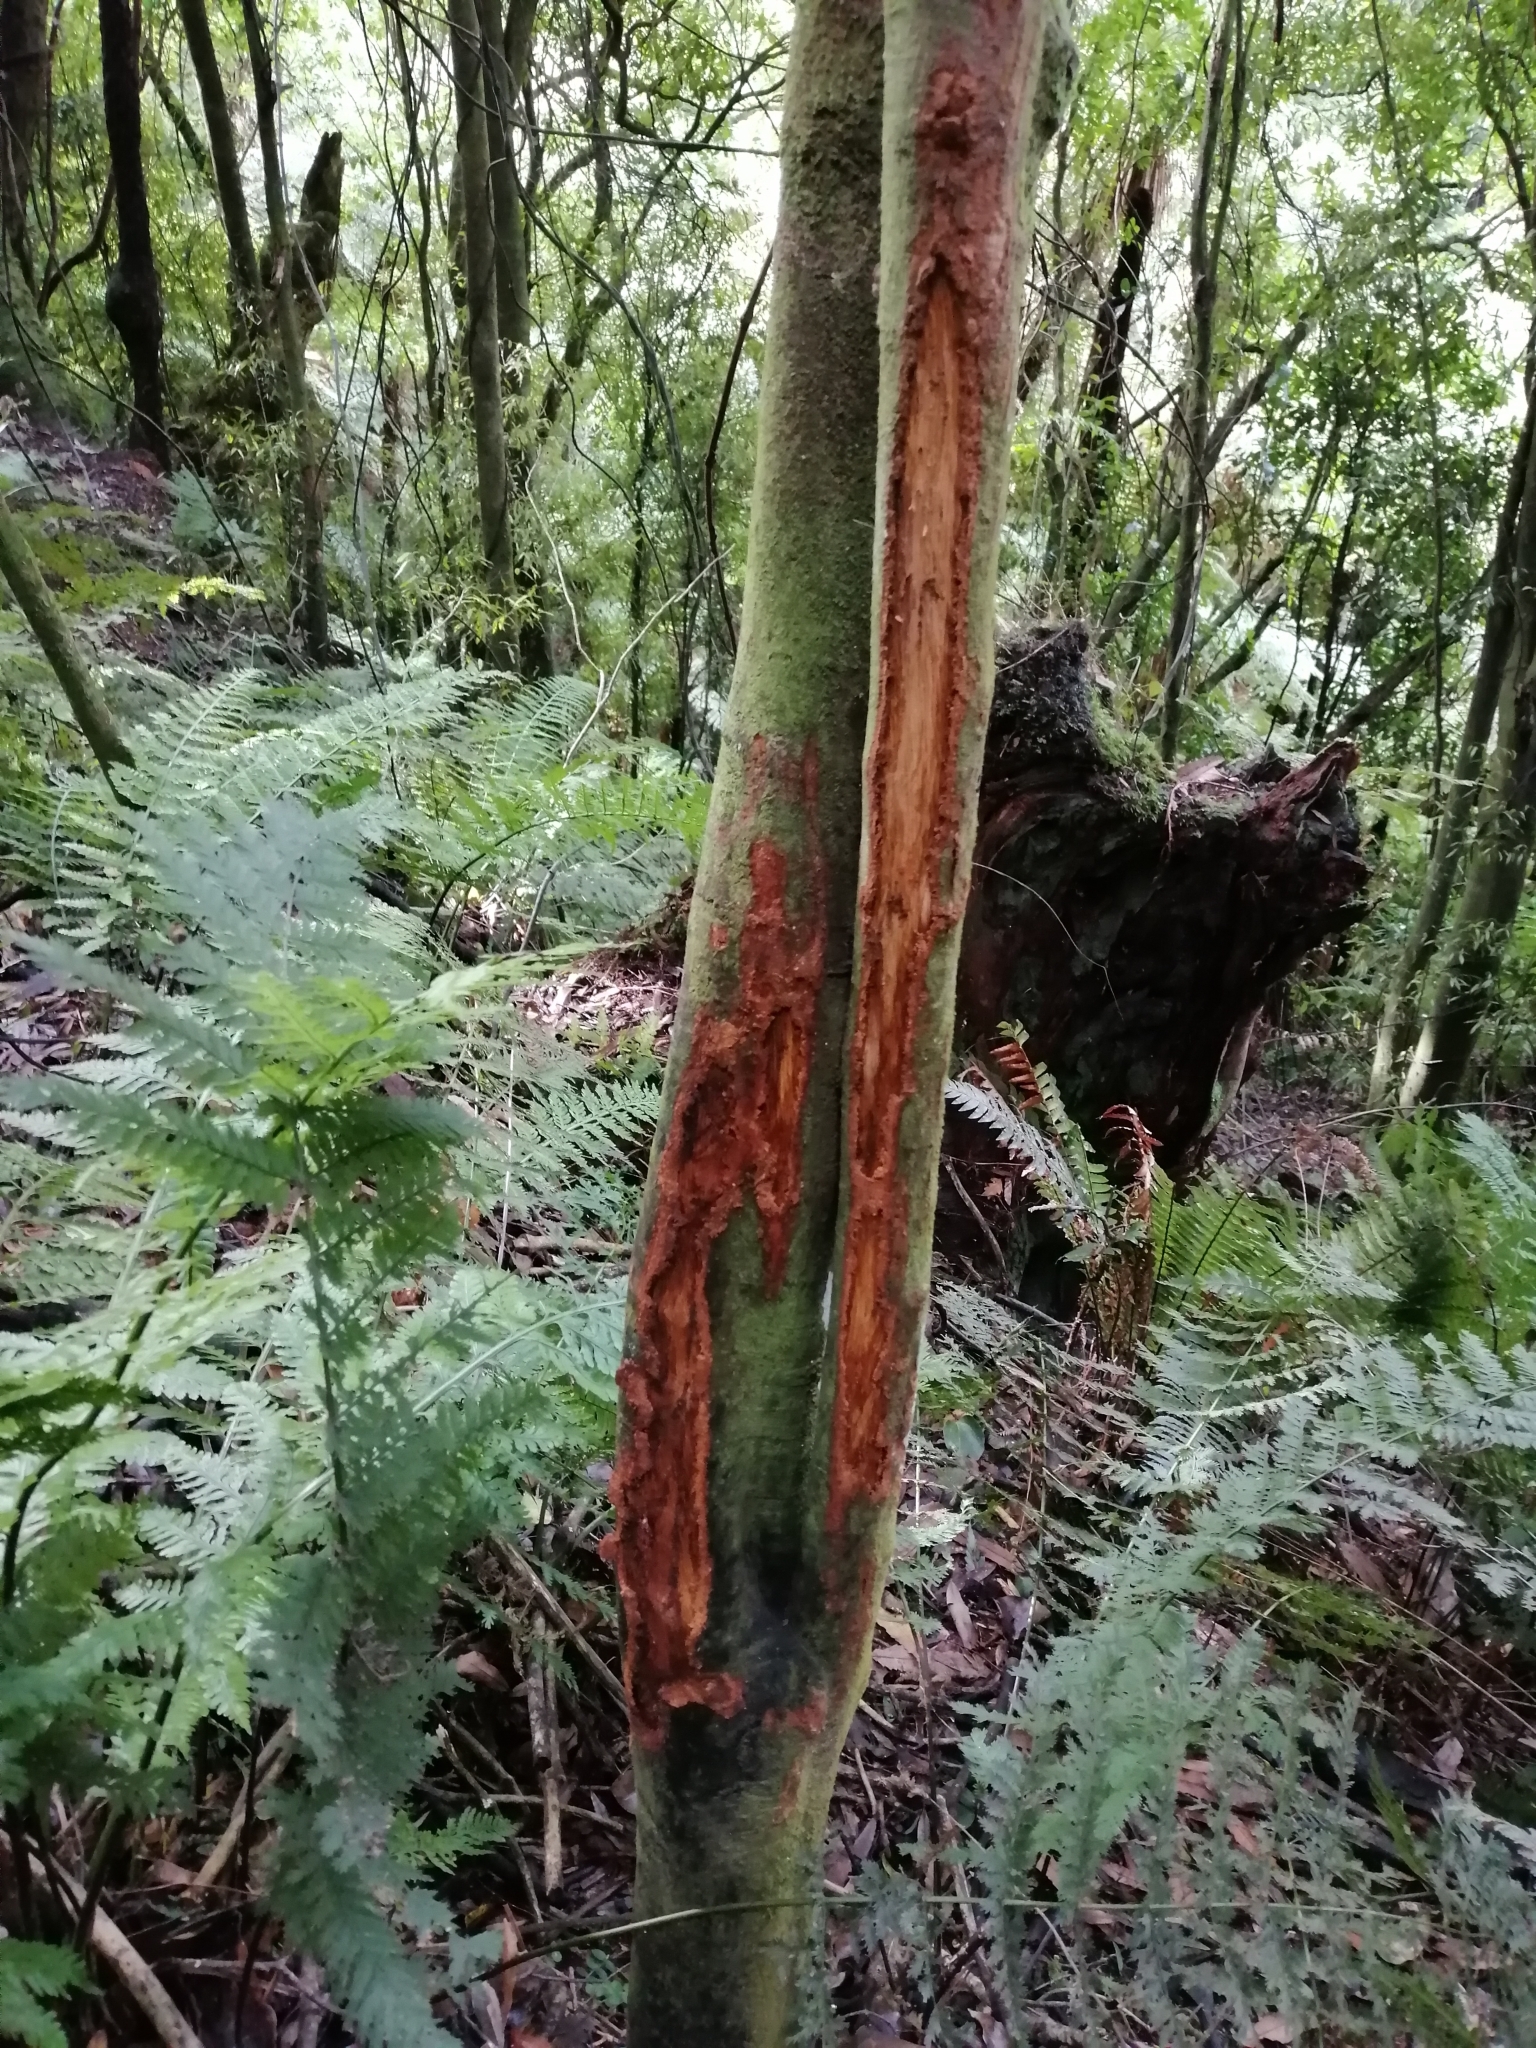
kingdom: Animalia
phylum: Chordata
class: Mammalia
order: Artiodactyla
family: Bovidae
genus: Capra
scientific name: Capra hircus
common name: Domestic goat
